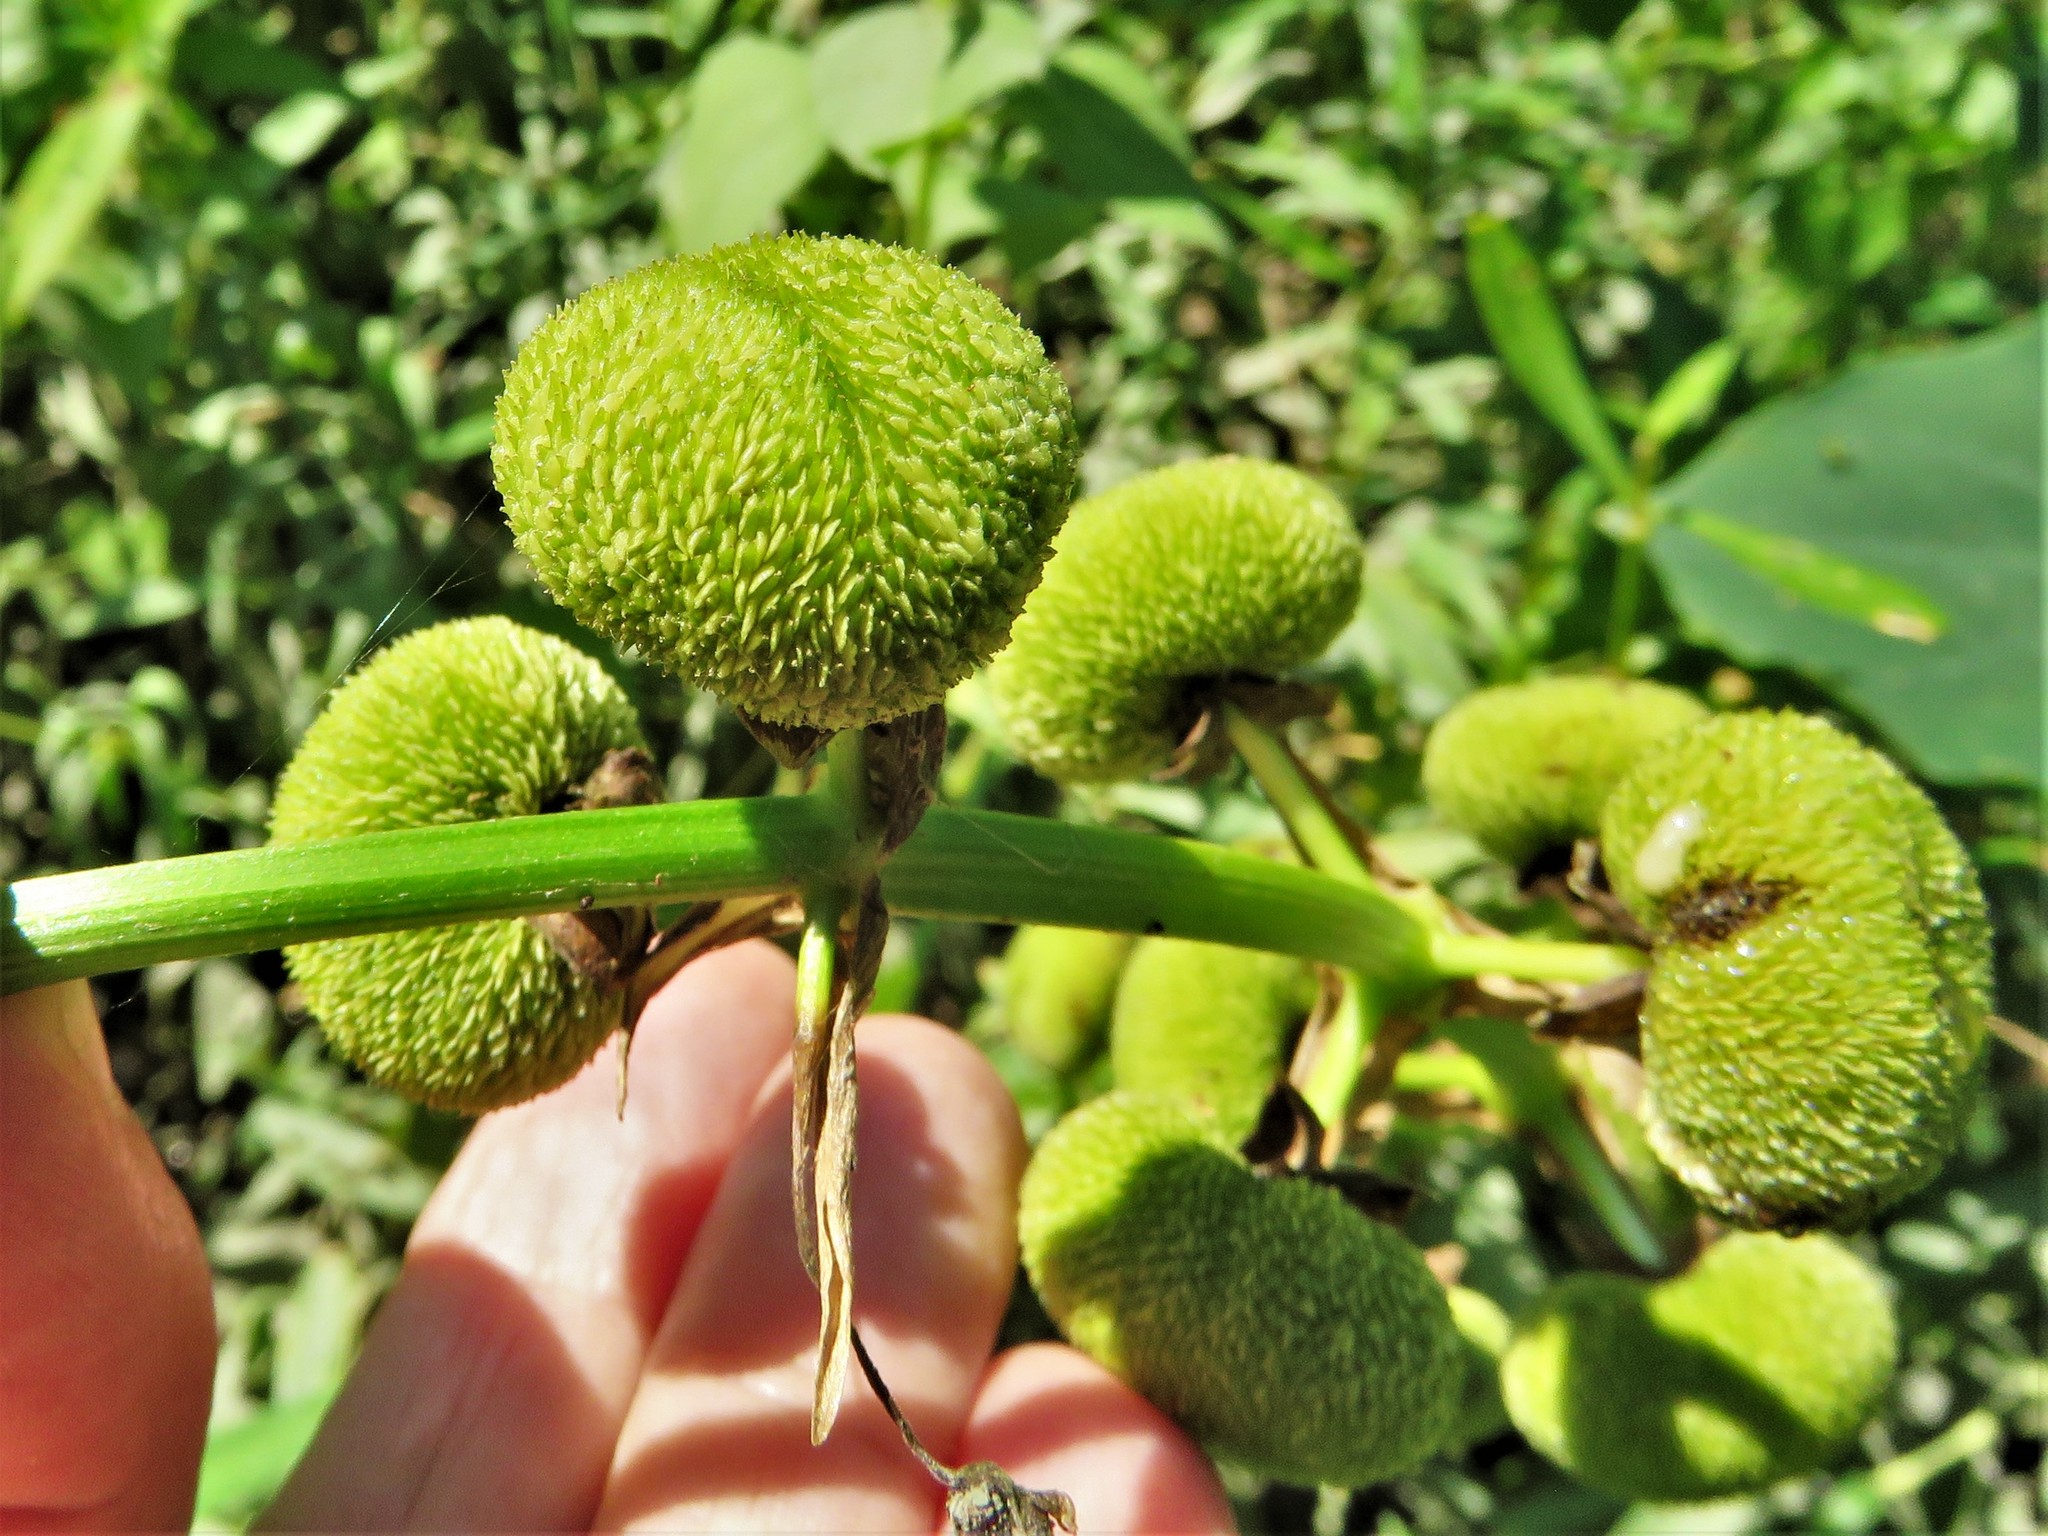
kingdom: Plantae
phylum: Tracheophyta
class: Liliopsida
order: Alismatales
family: Alismataceae
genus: Sagittaria
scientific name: Sagittaria brevirostra
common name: Midwestern arrowhead
